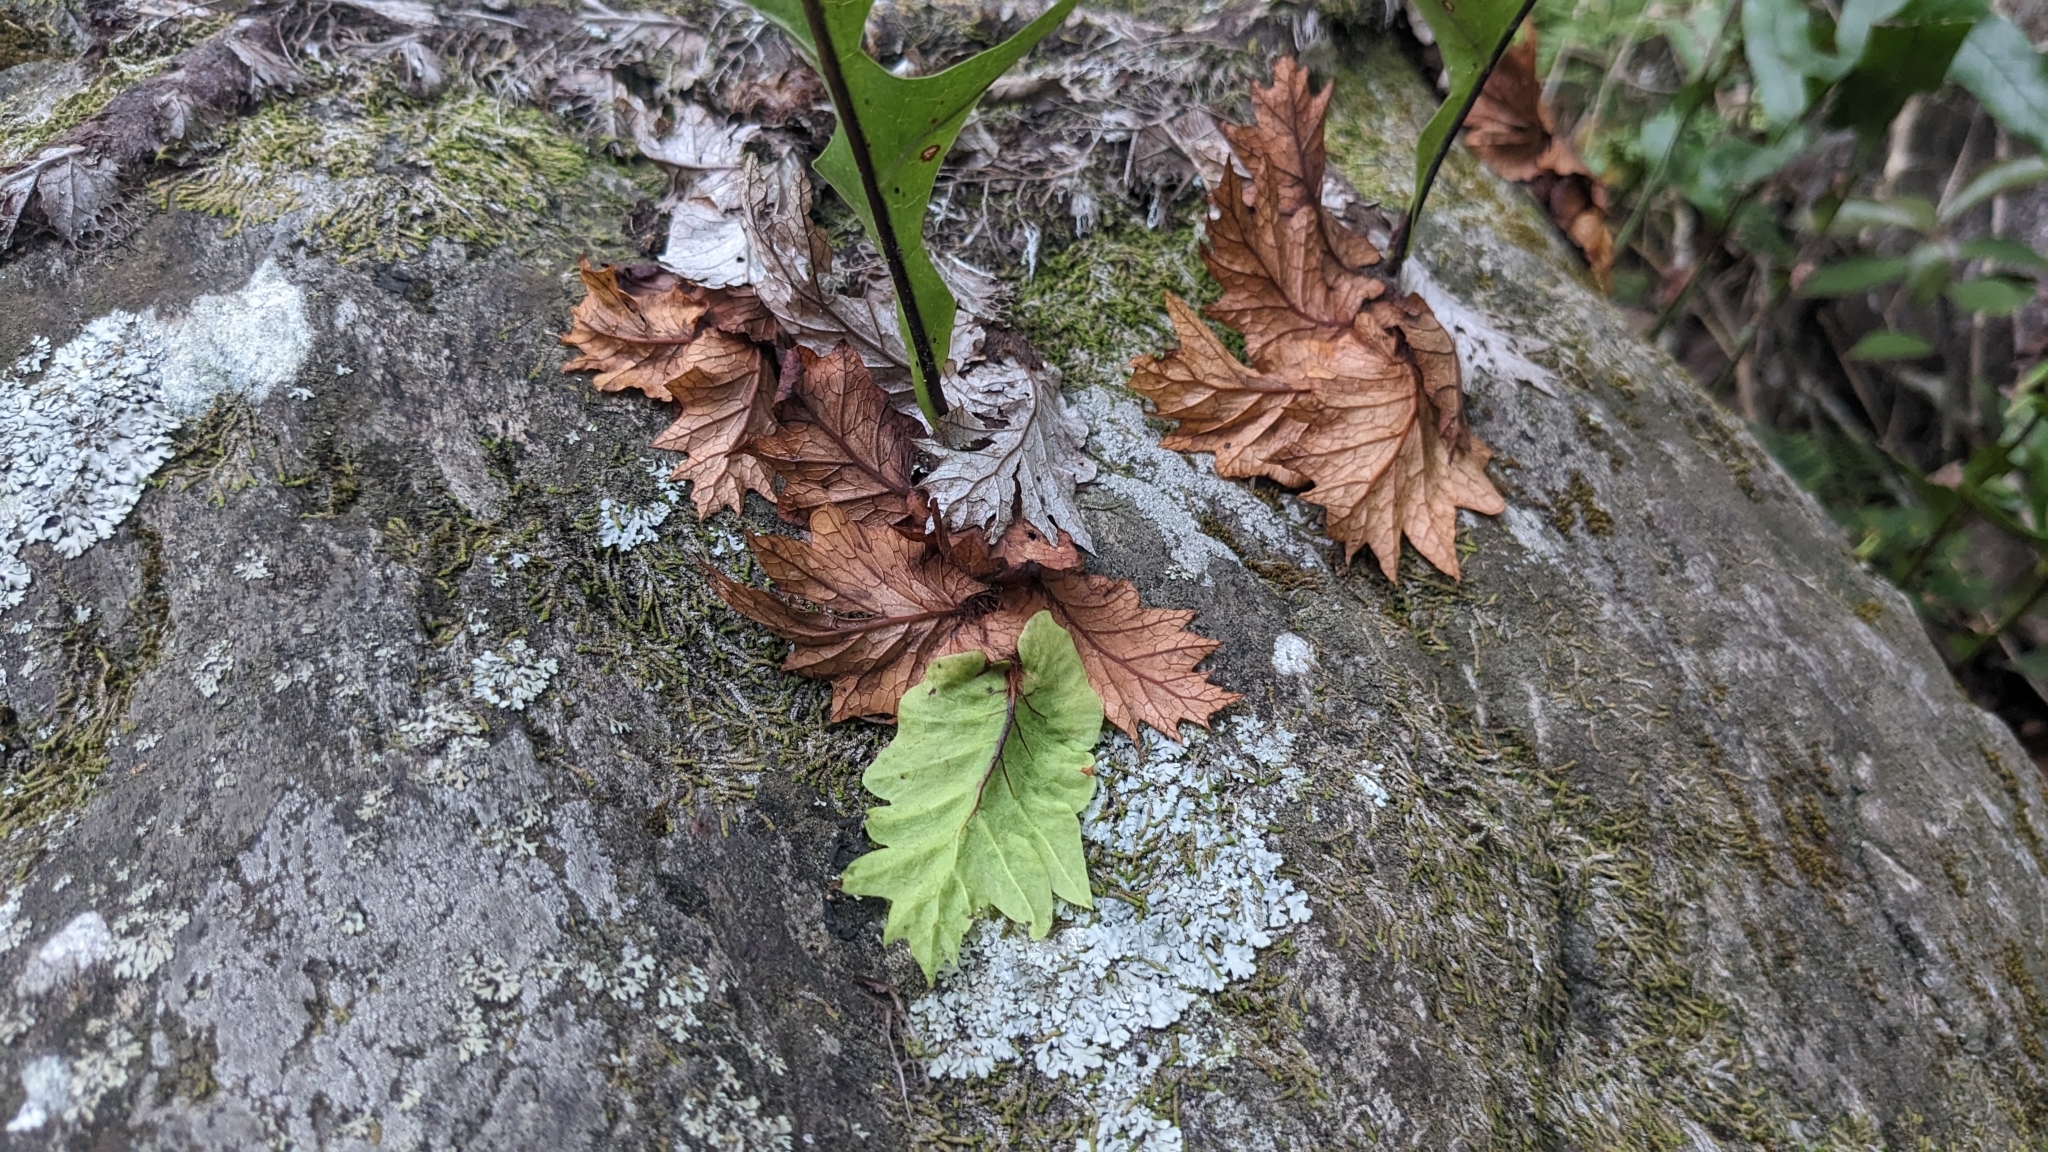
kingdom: Plantae
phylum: Tracheophyta
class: Polypodiopsida
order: Polypodiales
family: Polypodiaceae
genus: Drynaria
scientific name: Drynaria roosii
